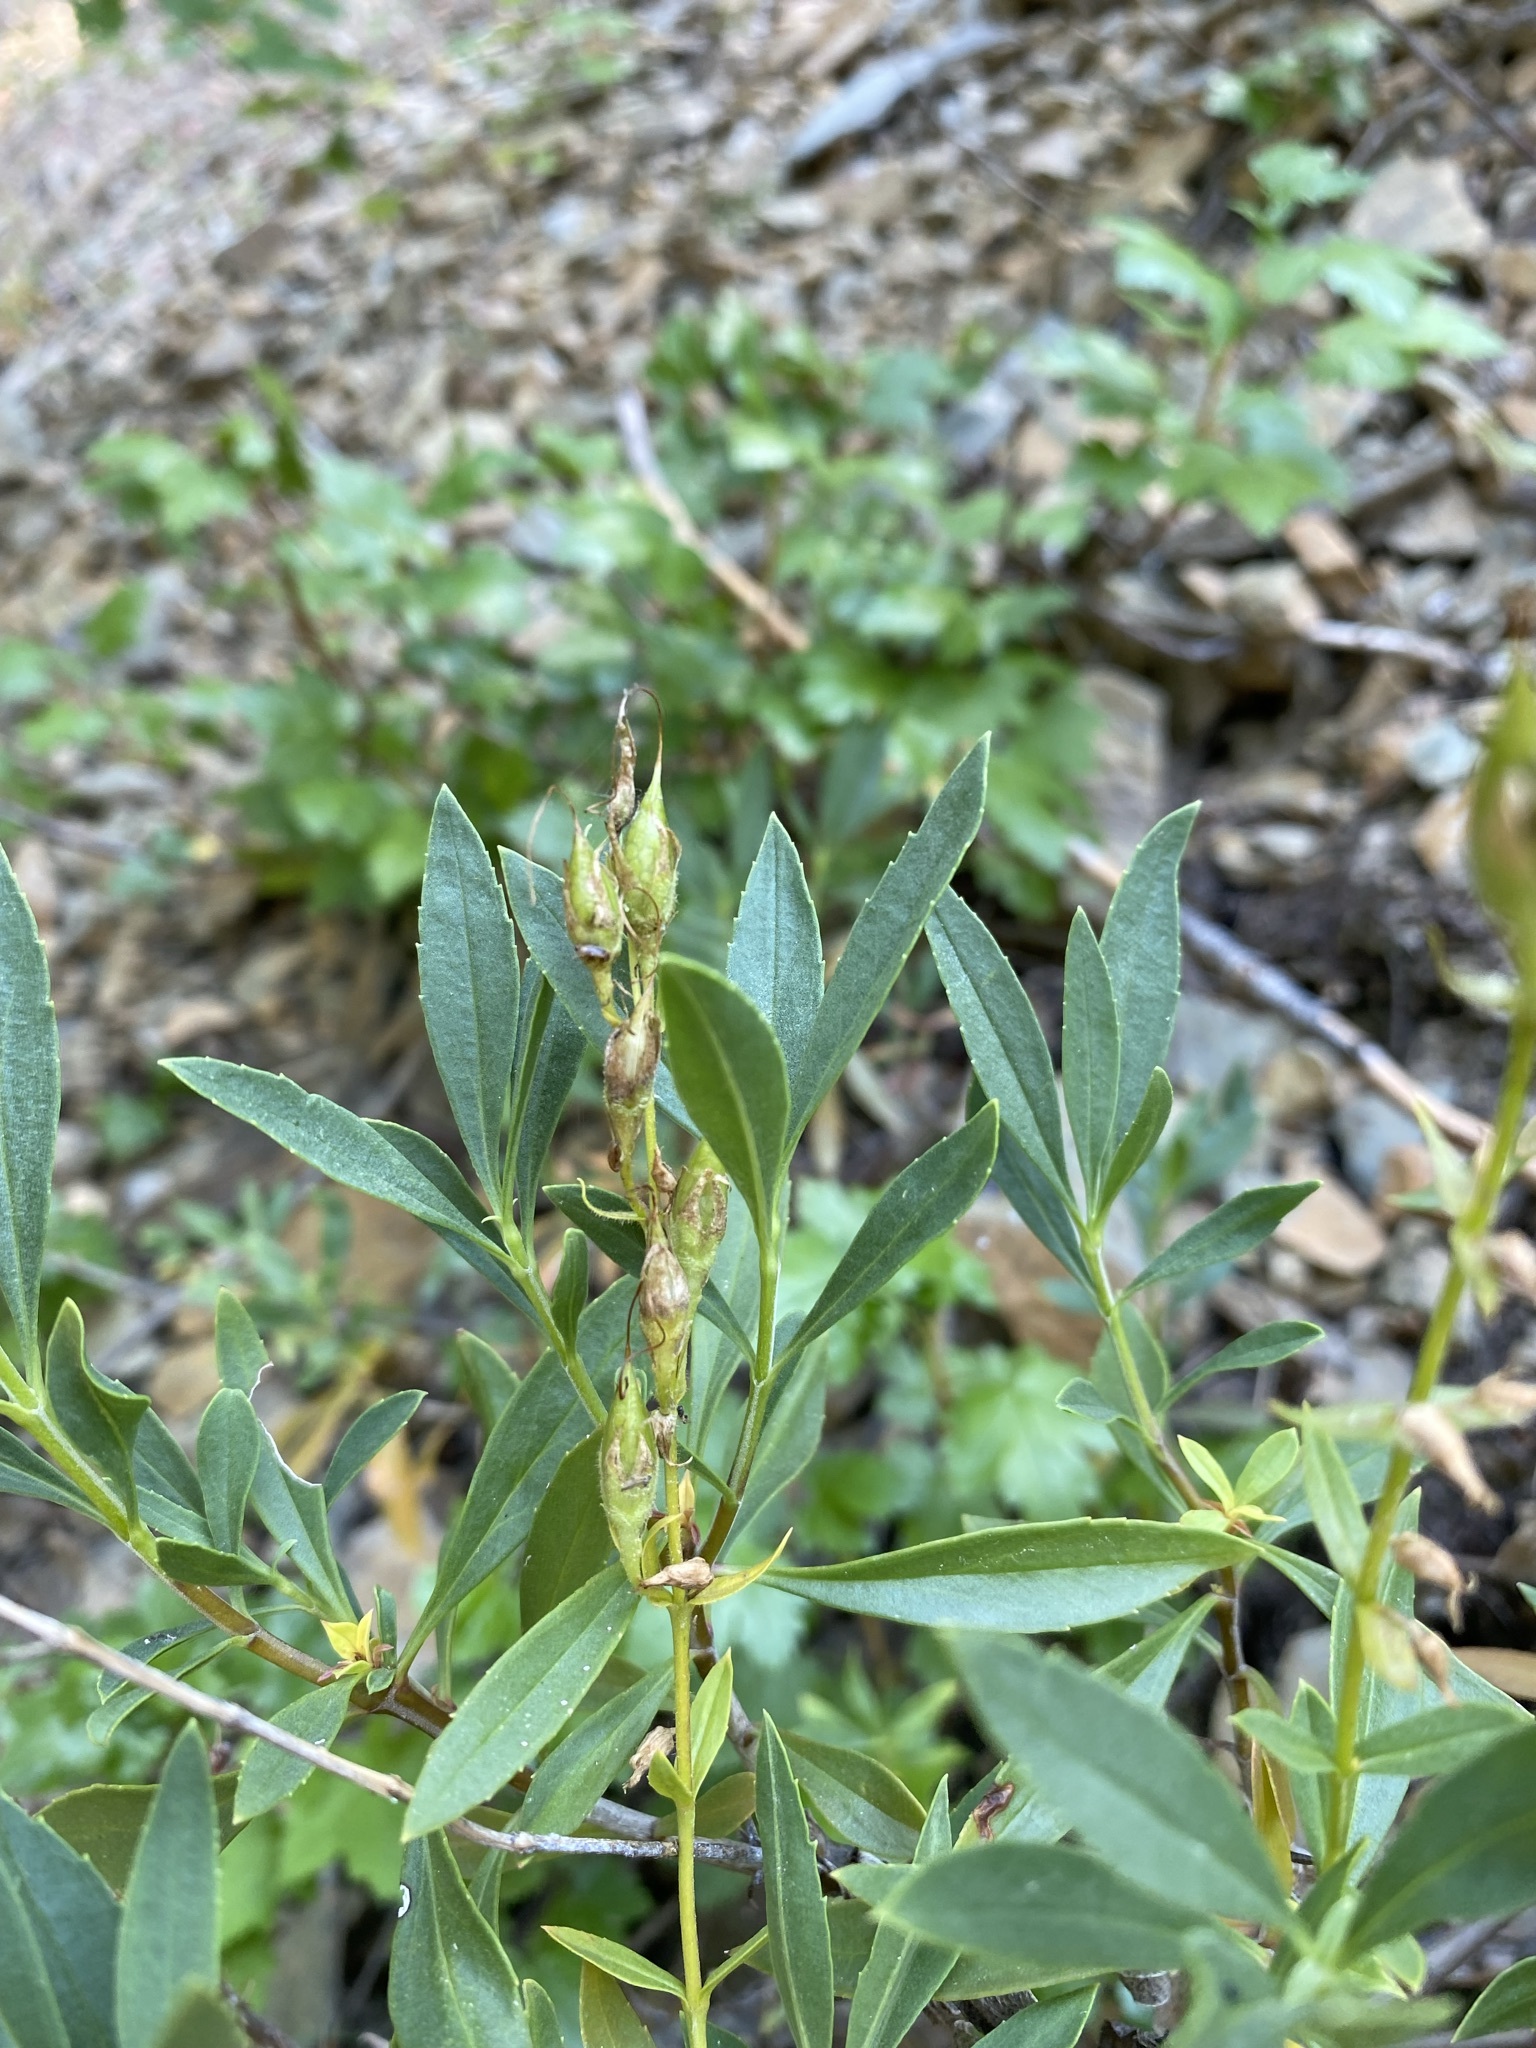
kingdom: Plantae
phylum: Tracheophyta
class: Magnoliopsida
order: Lamiales
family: Plantaginaceae
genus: Penstemon
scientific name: Penstemon fruticosus
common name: Bush penstemon
